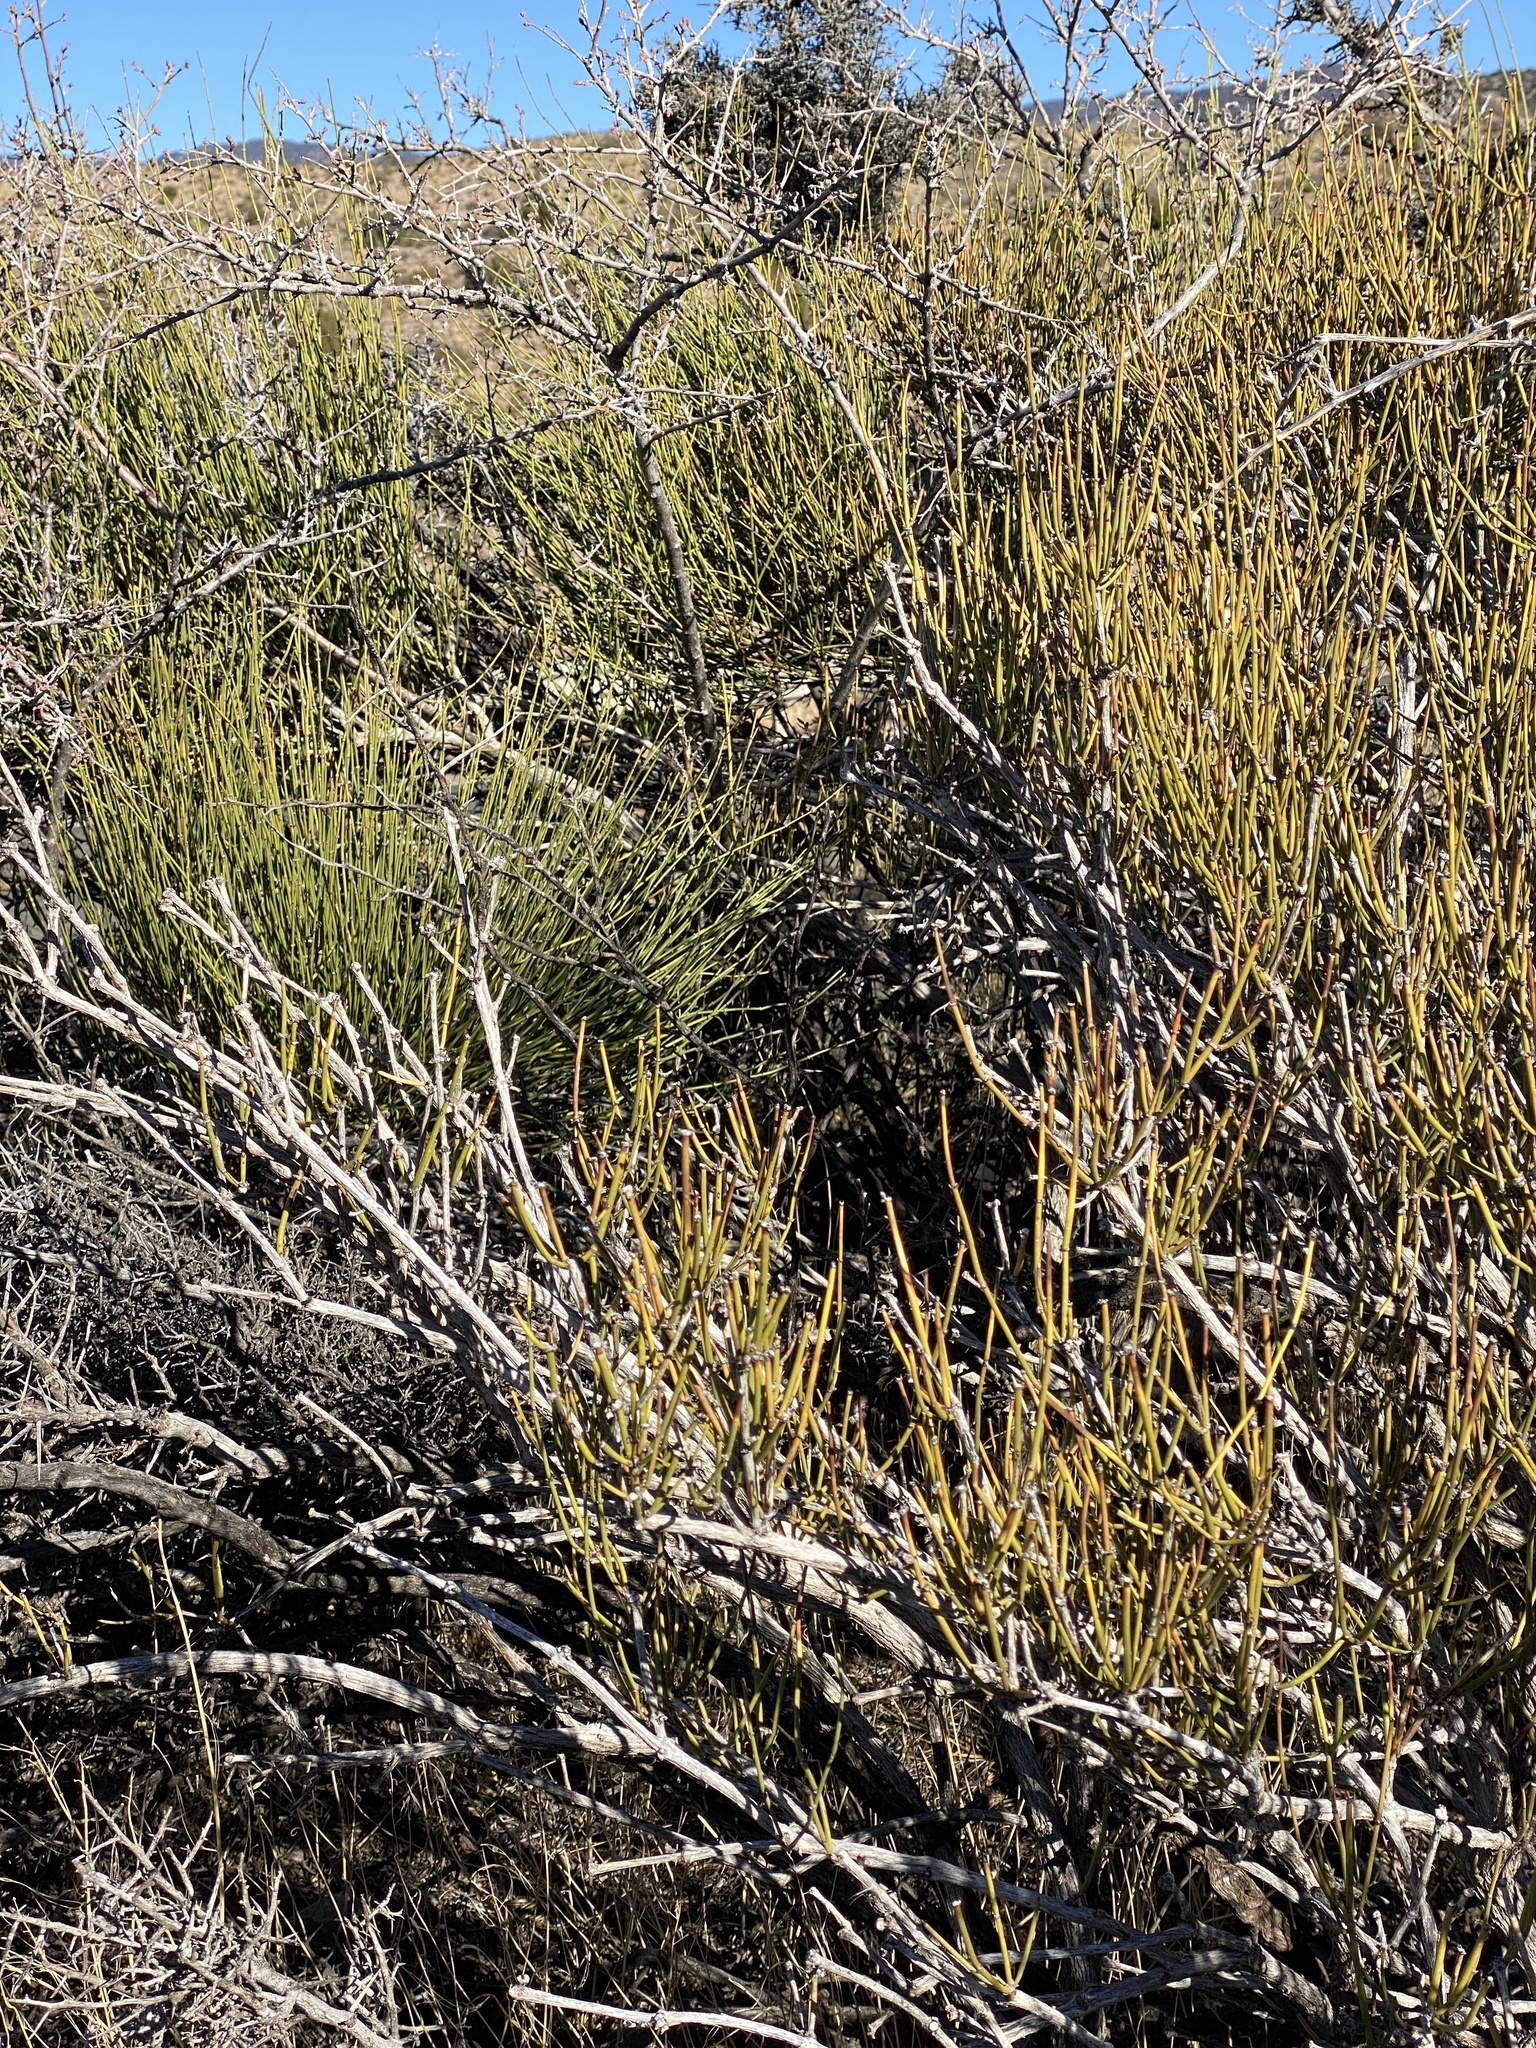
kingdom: Plantae
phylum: Tracheophyta
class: Gnetopsida
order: Ephedrales
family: Ephedraceae
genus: Ephedra
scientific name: Ephedra trifurca
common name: Mexican-tea
